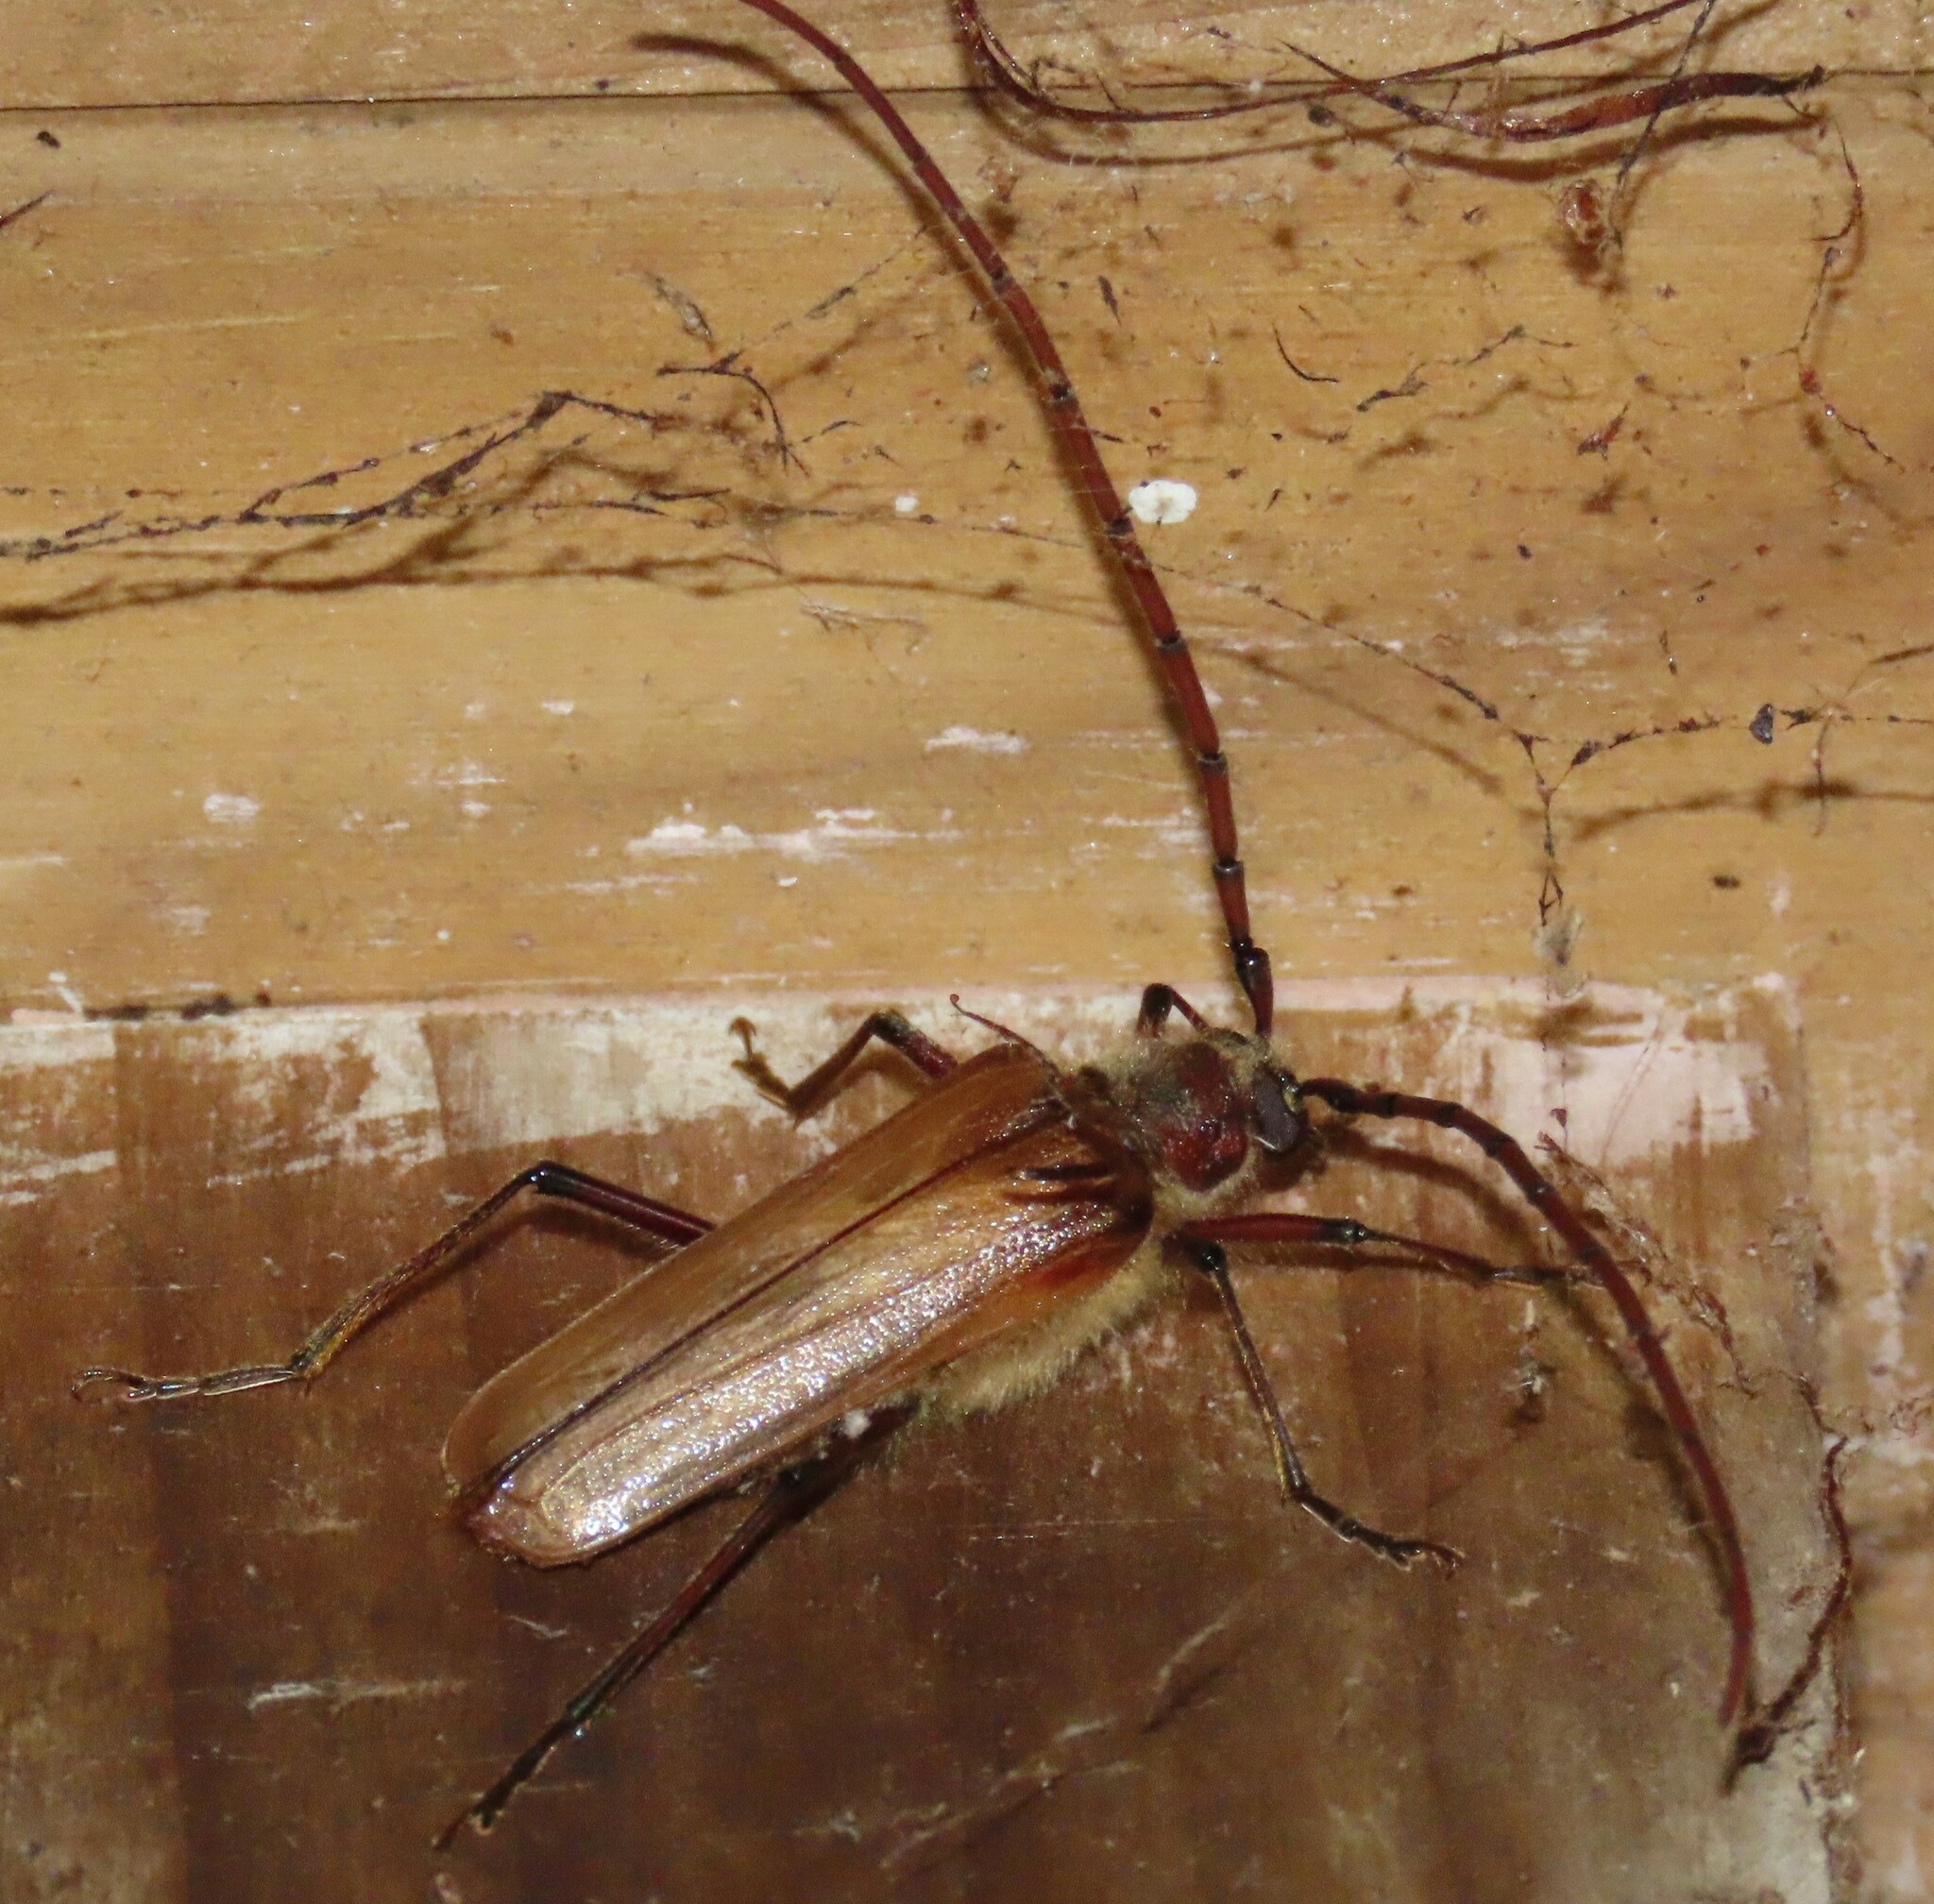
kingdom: Animalia
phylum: Arthropoda
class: Insecta
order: Coleoptera
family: Cerambycidae
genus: Ochrocydus
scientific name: Ochrocydus huttoni
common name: Kanuka longhorn
